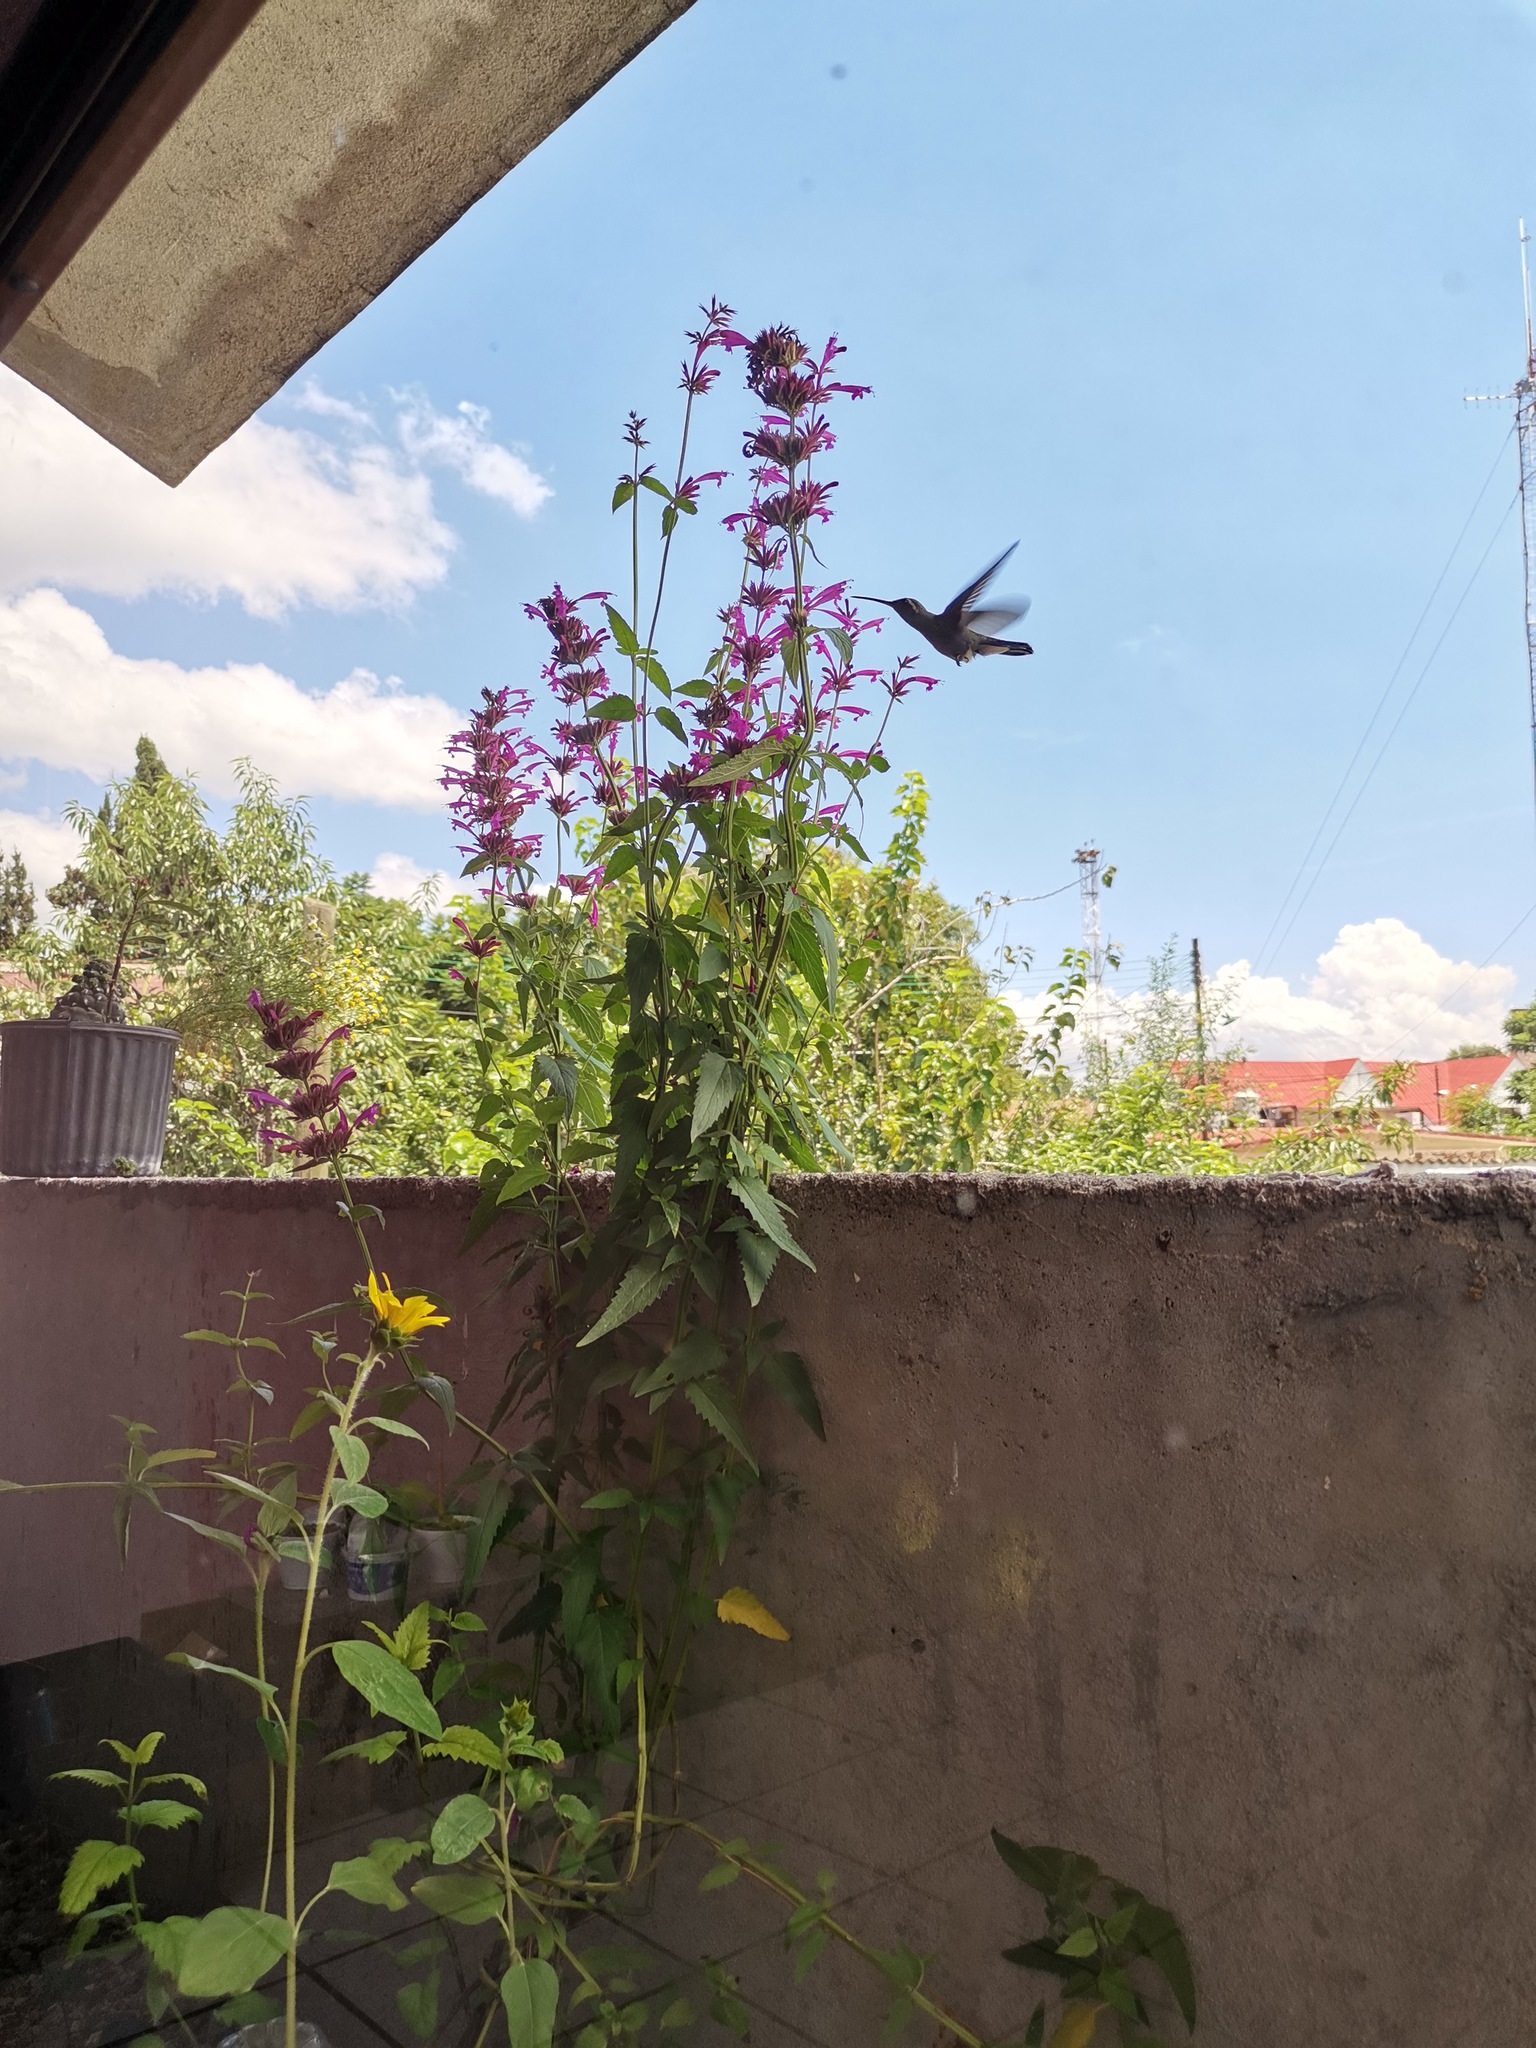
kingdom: Animalia
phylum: Chordata
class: Aves
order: Apodiformes
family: Trochilidae
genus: Cynanthus
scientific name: Cynanthus latirostris
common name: Broad-billed hummingbird
